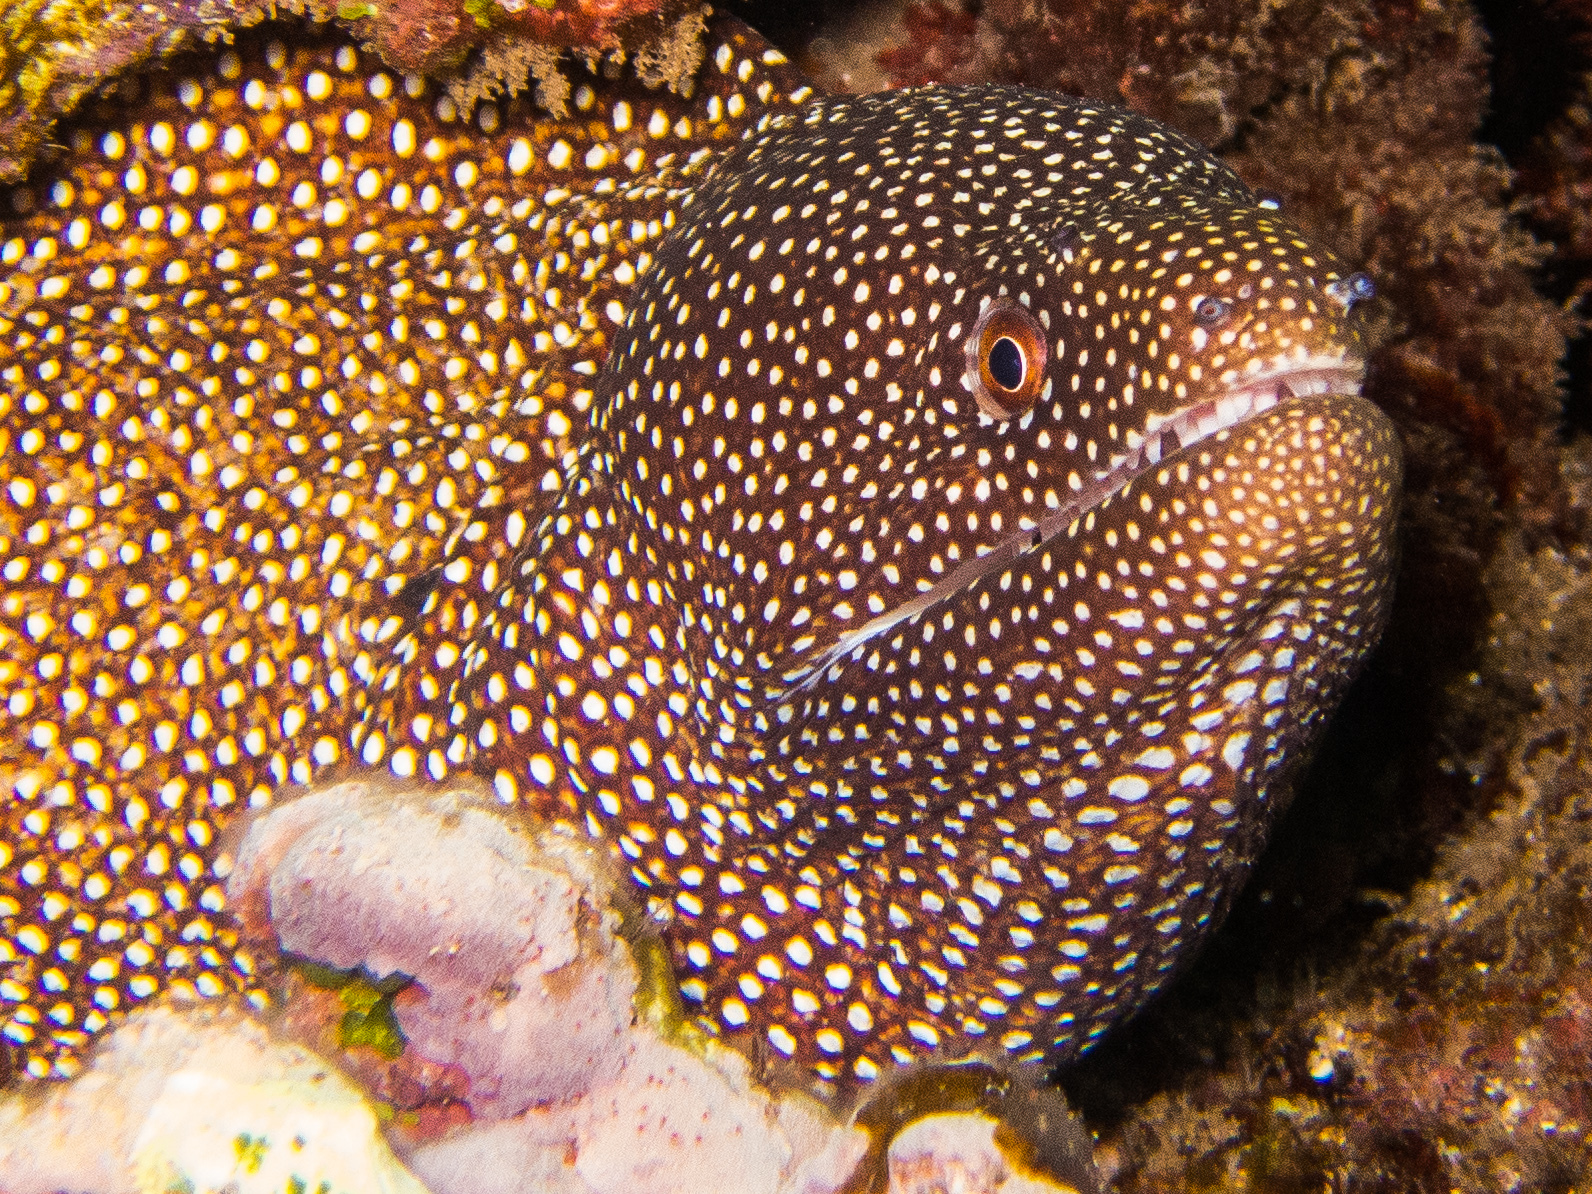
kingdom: Animalia
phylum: Chordata
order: Anguilliformes
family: Muraenidae
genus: Gymnothorax
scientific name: Gymnothorax meleagris
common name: Guineafowl moray
